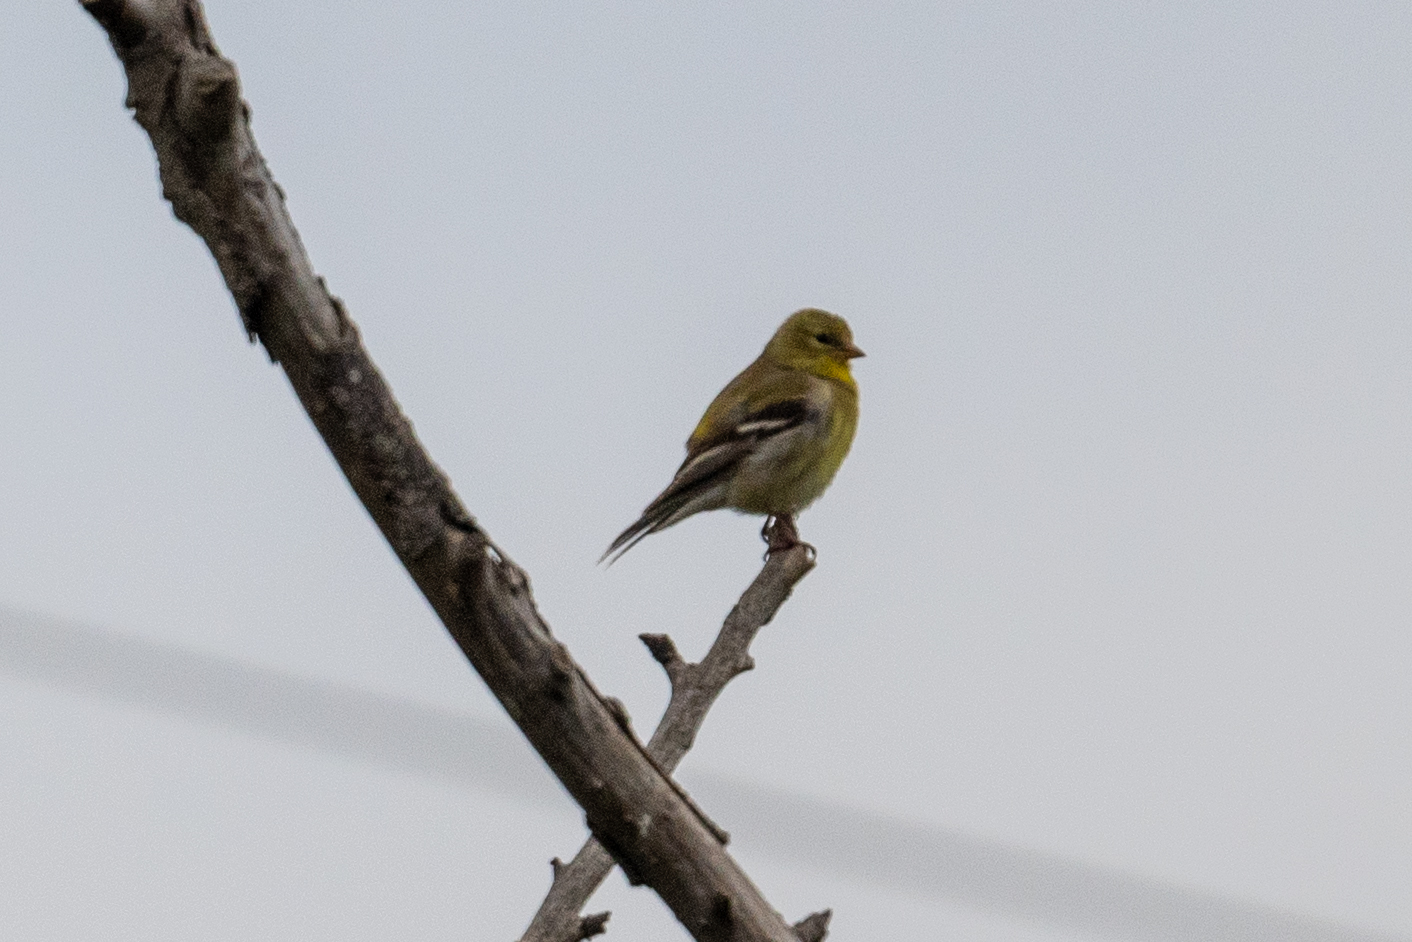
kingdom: Animalia
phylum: Chordata
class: Aves
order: Passeriformes
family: Fringillidae
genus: Spinus
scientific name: Spinus tristis
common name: American goldfinch
